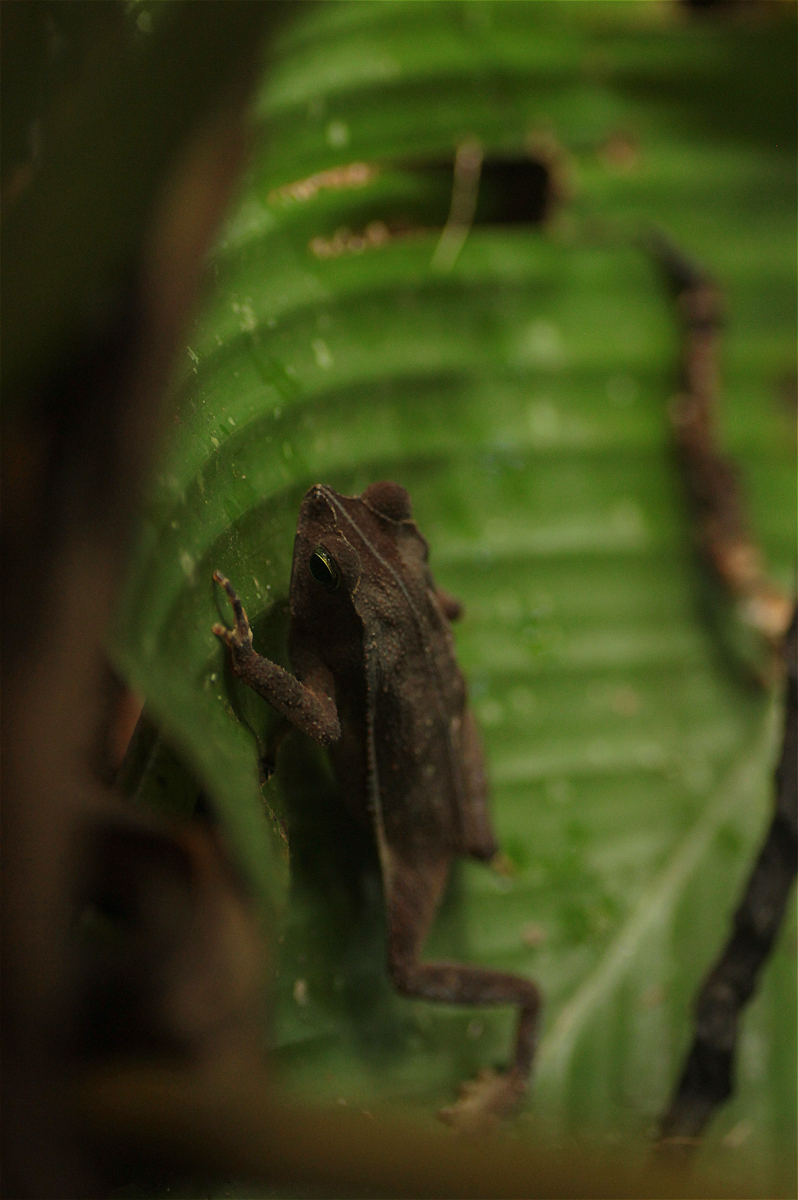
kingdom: Animalia
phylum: Chordata
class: Amphibia
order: Anura
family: Bufonidae
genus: Rhinella
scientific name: Rhinella margaritifera
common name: Mitred toad
